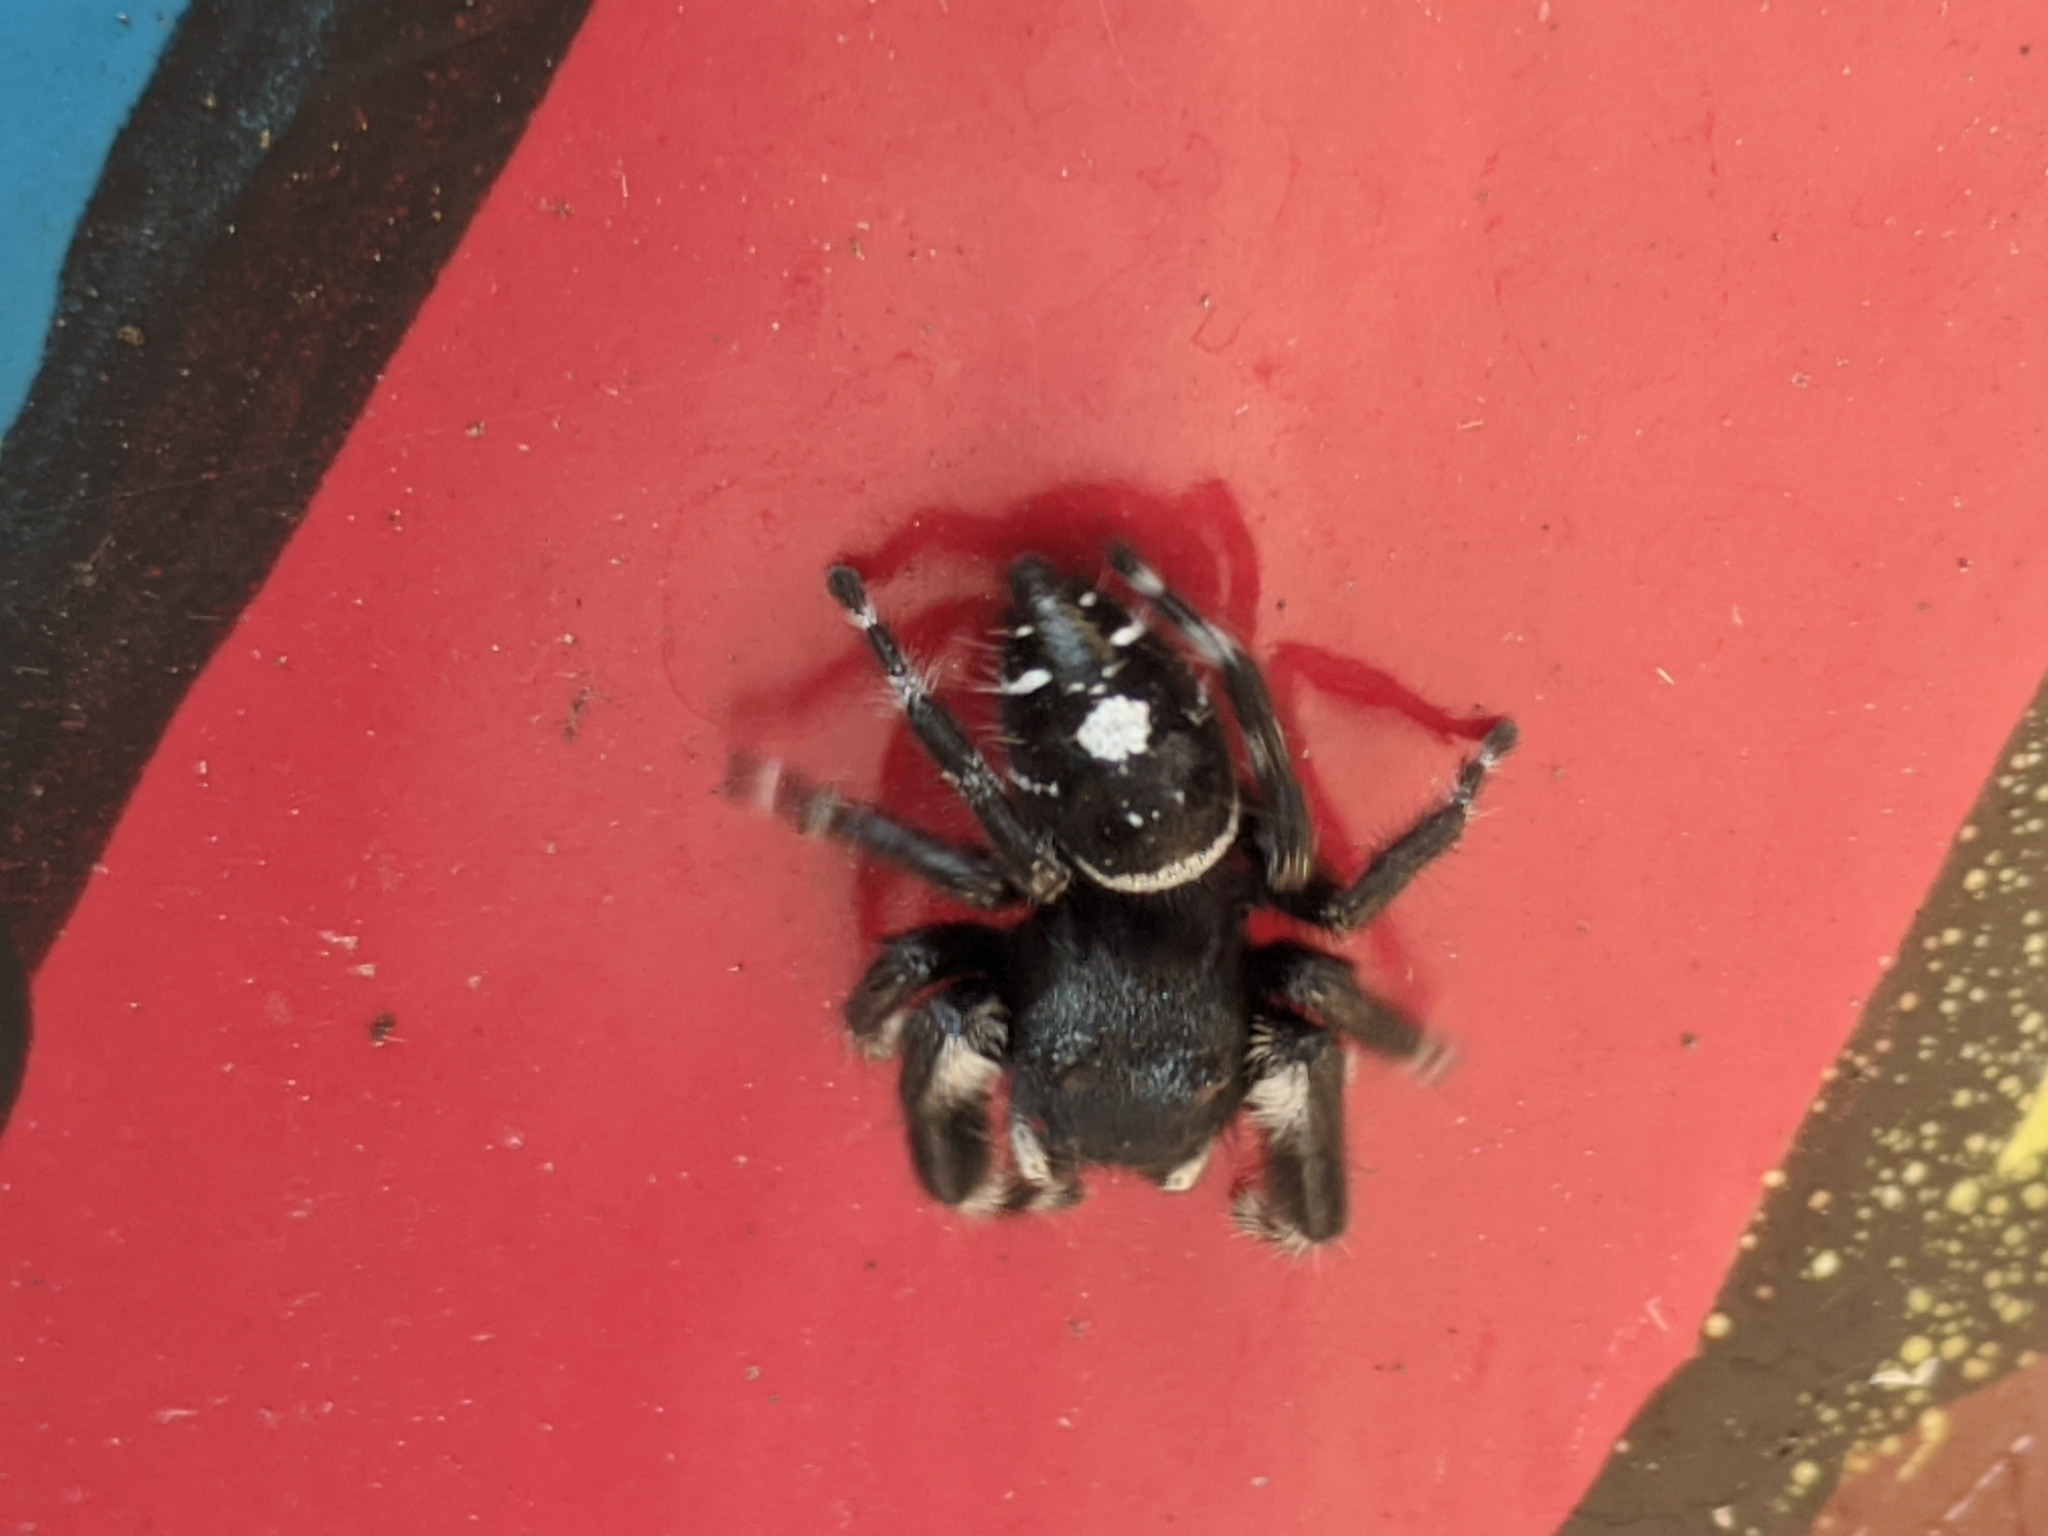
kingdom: Animalia
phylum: Arthropoda
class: Arachnida
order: Araneae
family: Salticidae
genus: Phidippus
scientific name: Phidippus audax
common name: Bold jumper
